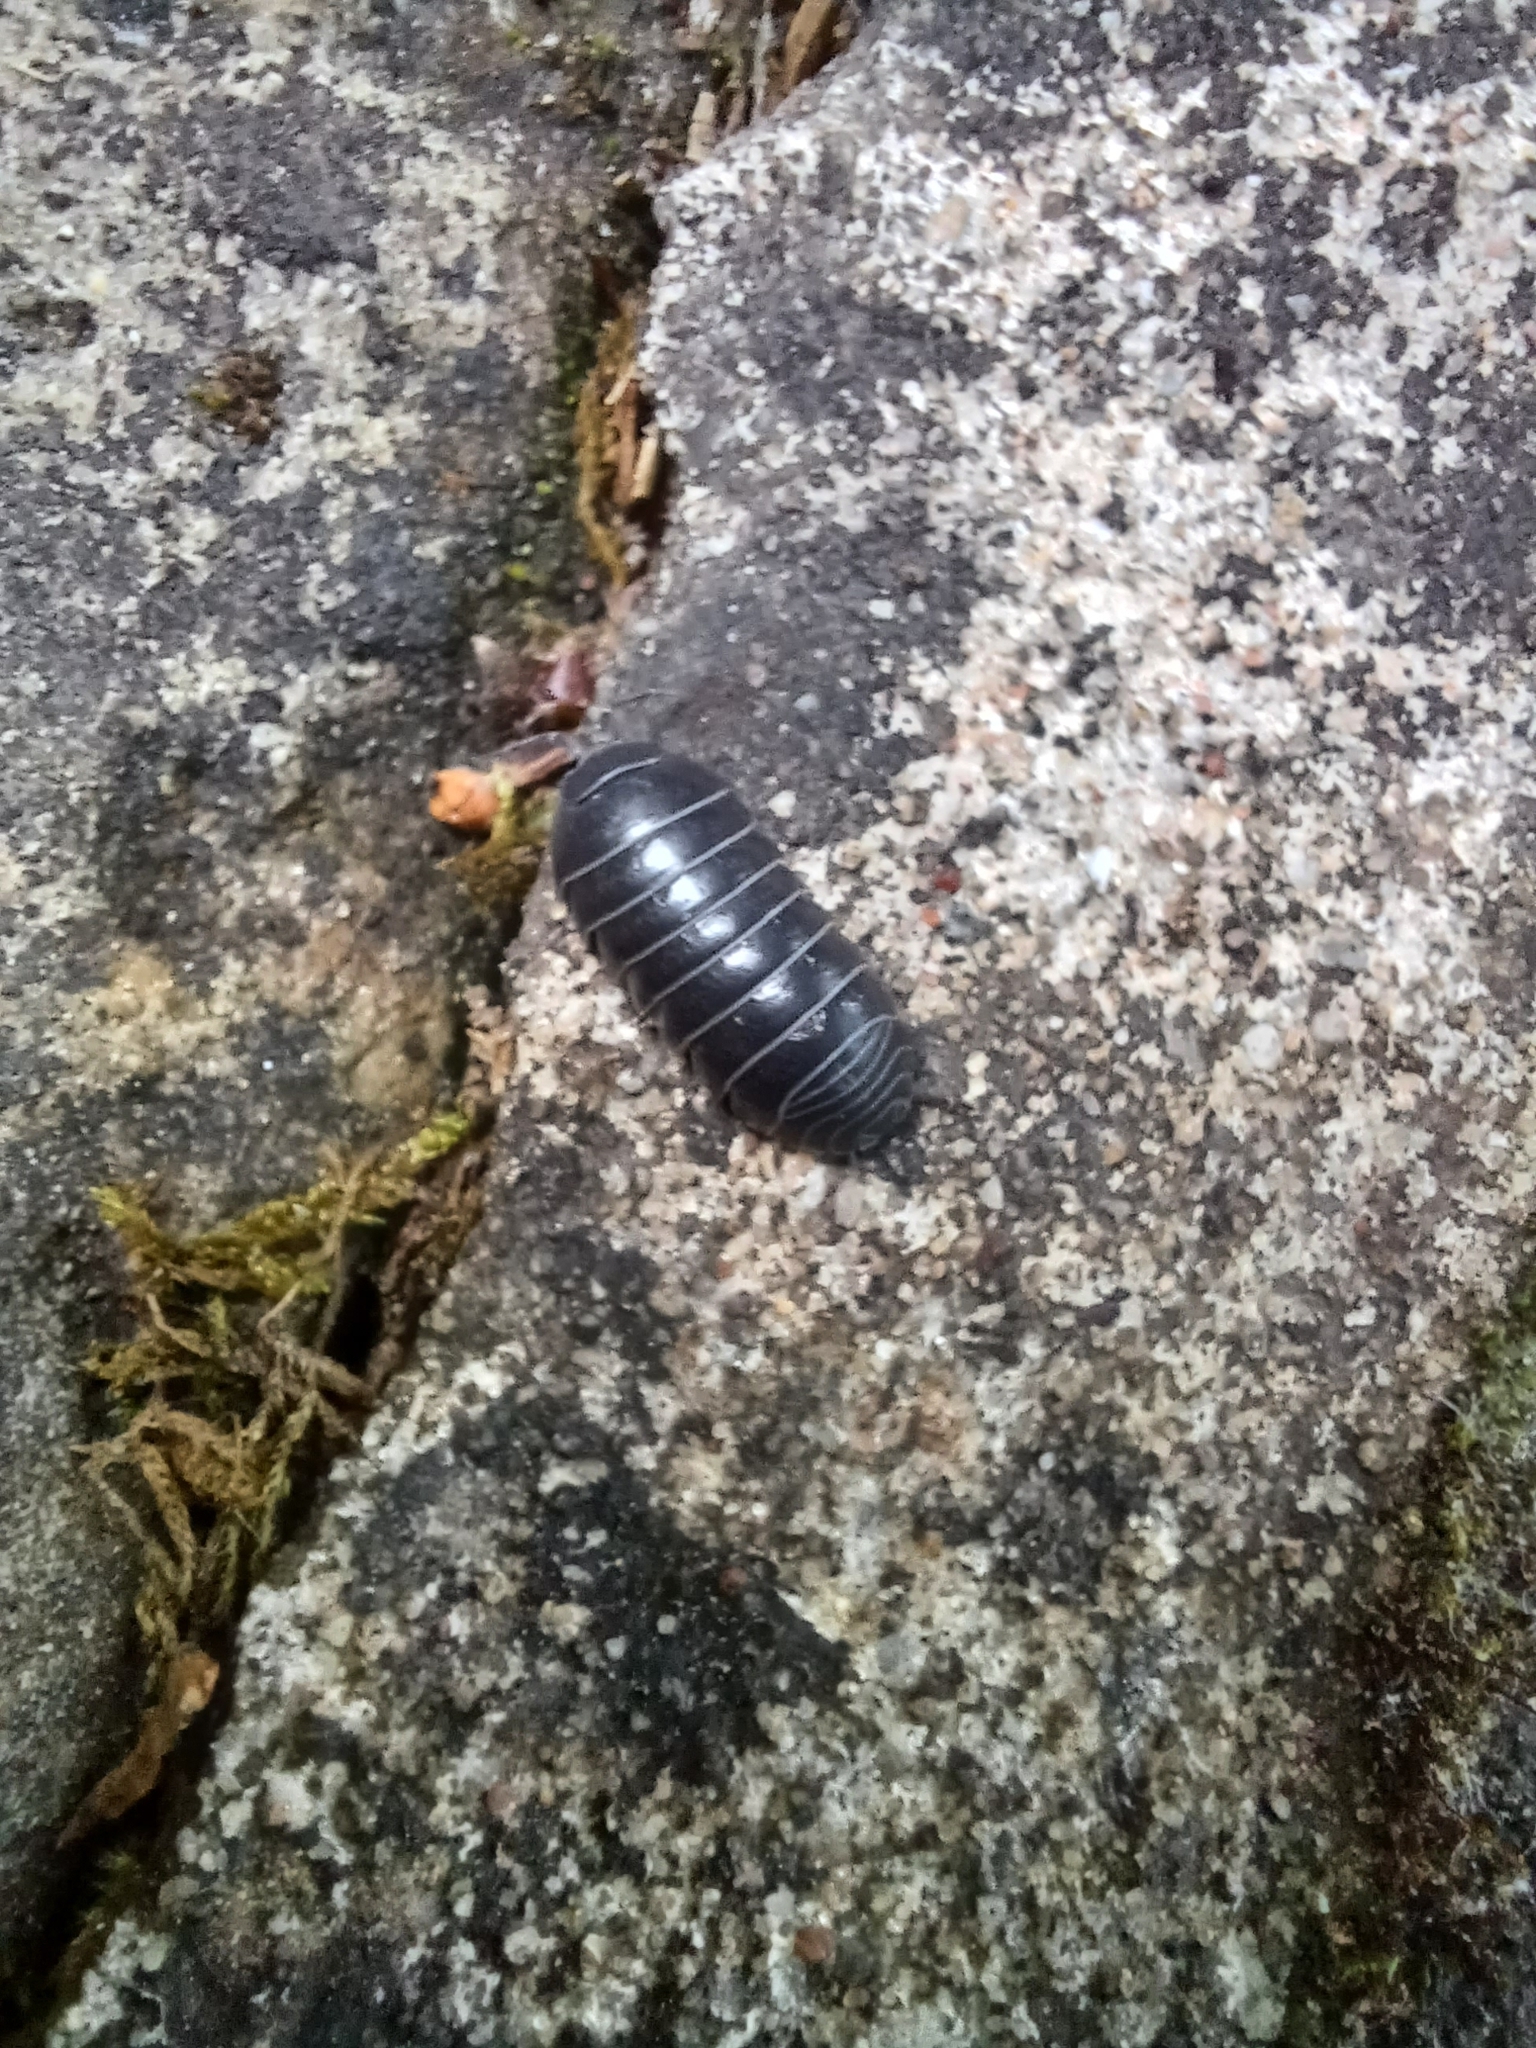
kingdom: Animalia
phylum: Arthropoda
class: Malacostraca
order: Isopoda
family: Armadillidiidae
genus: Armadillidium
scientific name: Armadillidium vulgare
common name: Common pill woodlouse
